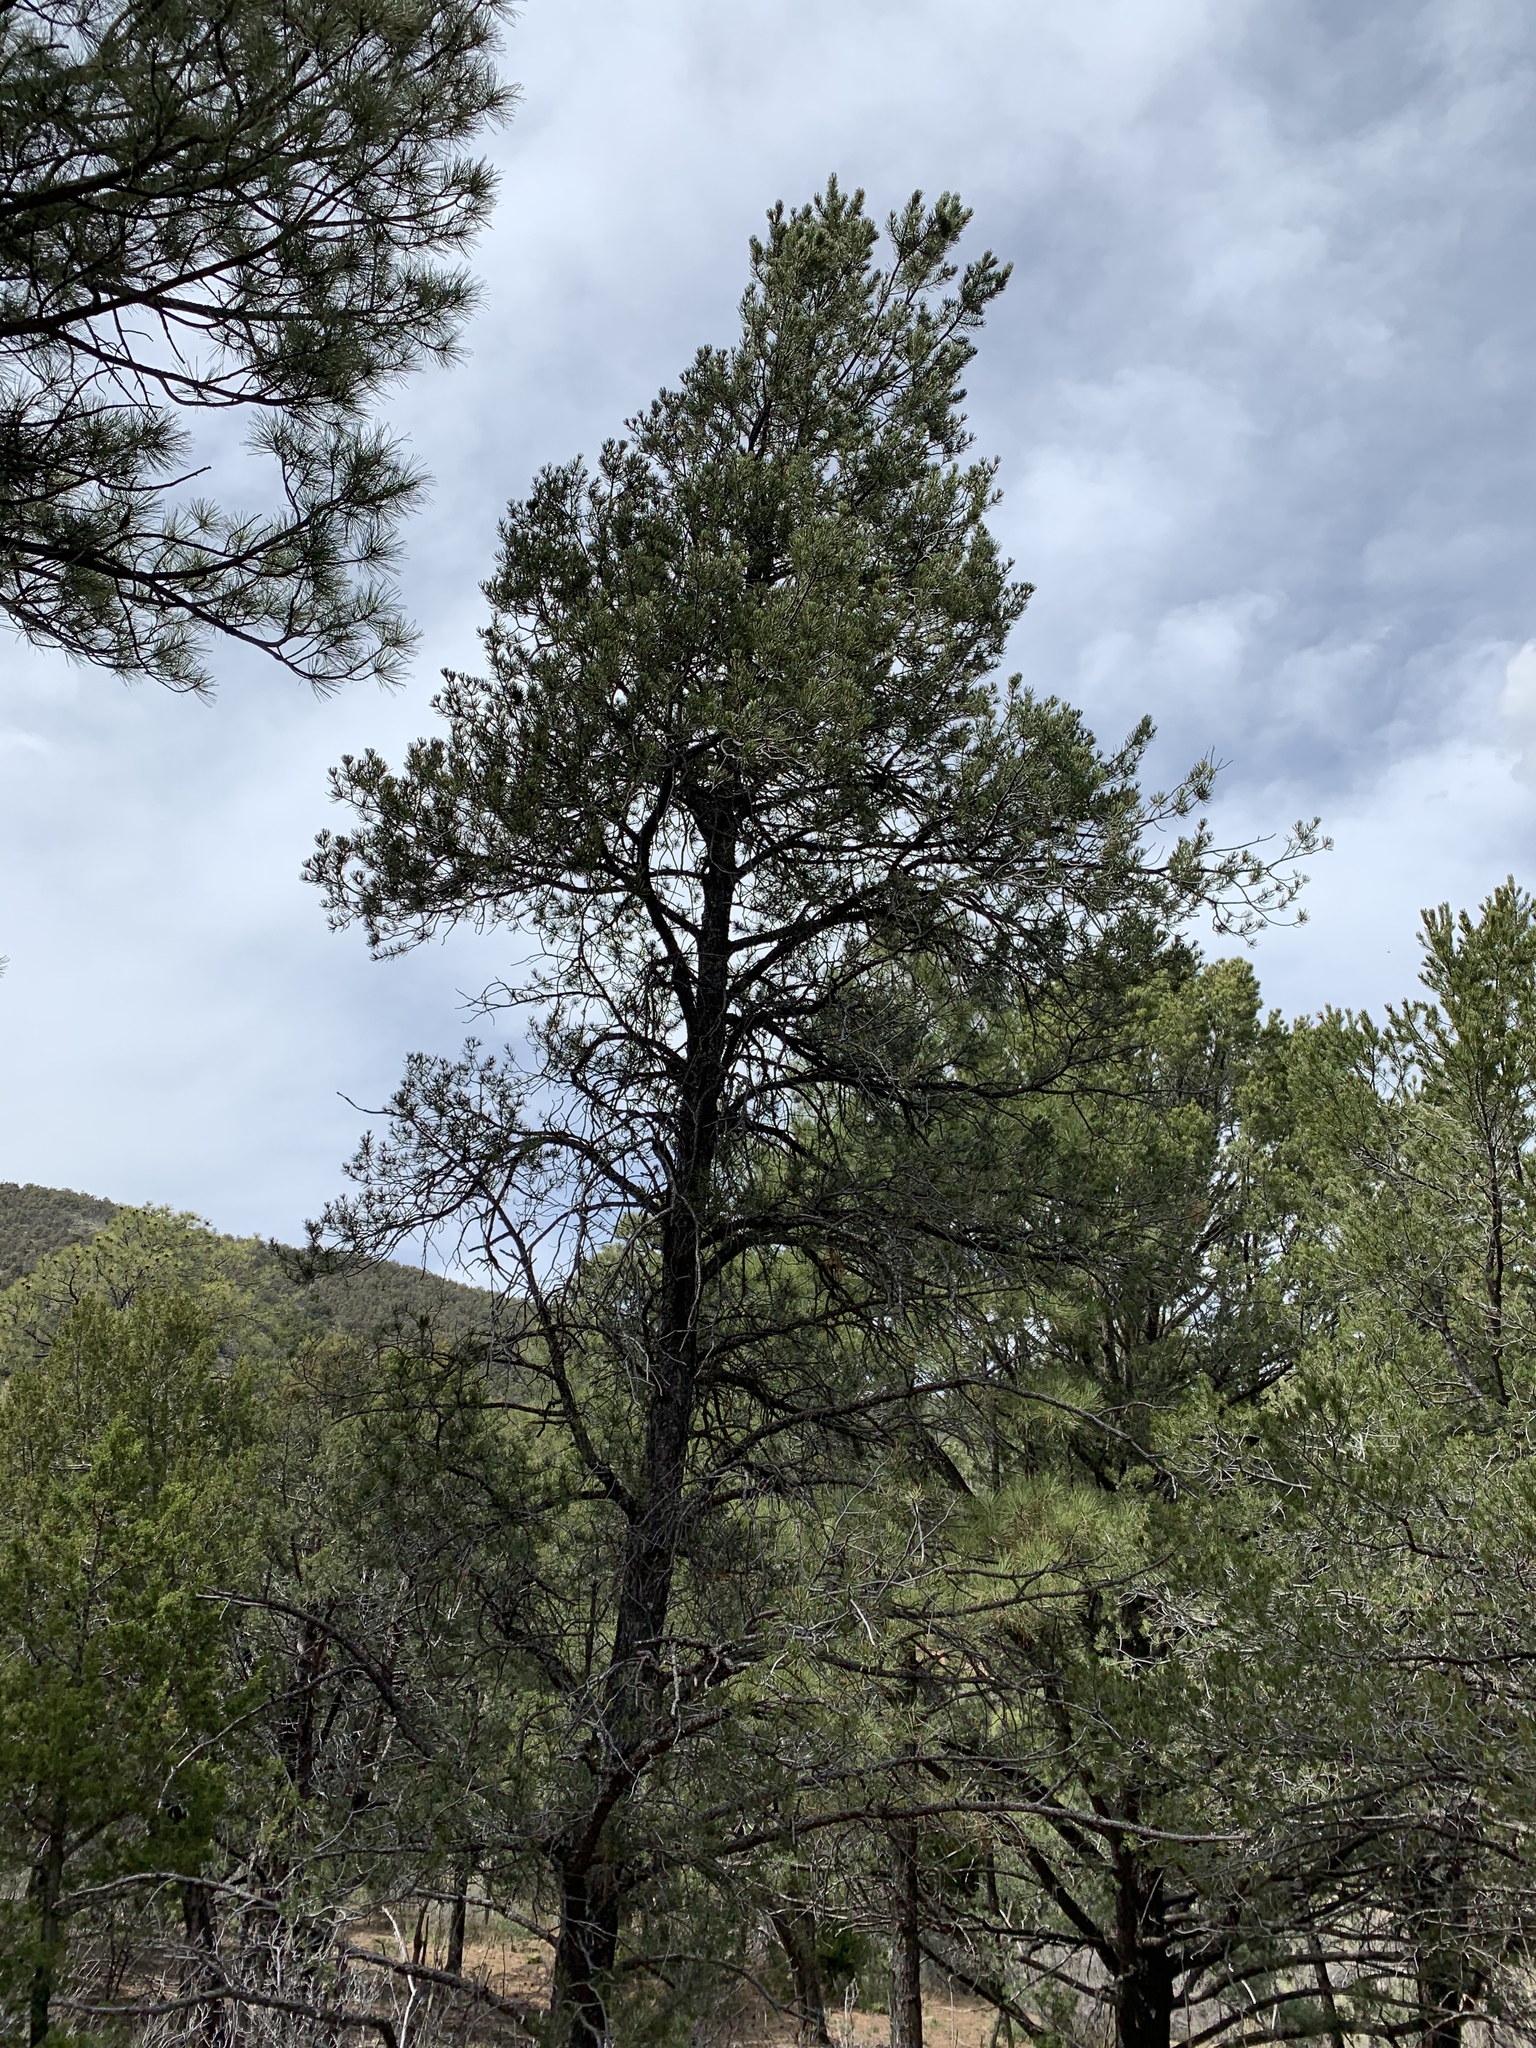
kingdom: Plantae
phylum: Tracheophyta
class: Pinopsida
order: Pinales
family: Pinaceae
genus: Pinus
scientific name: Pinus edulis
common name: Colorado pinyon
